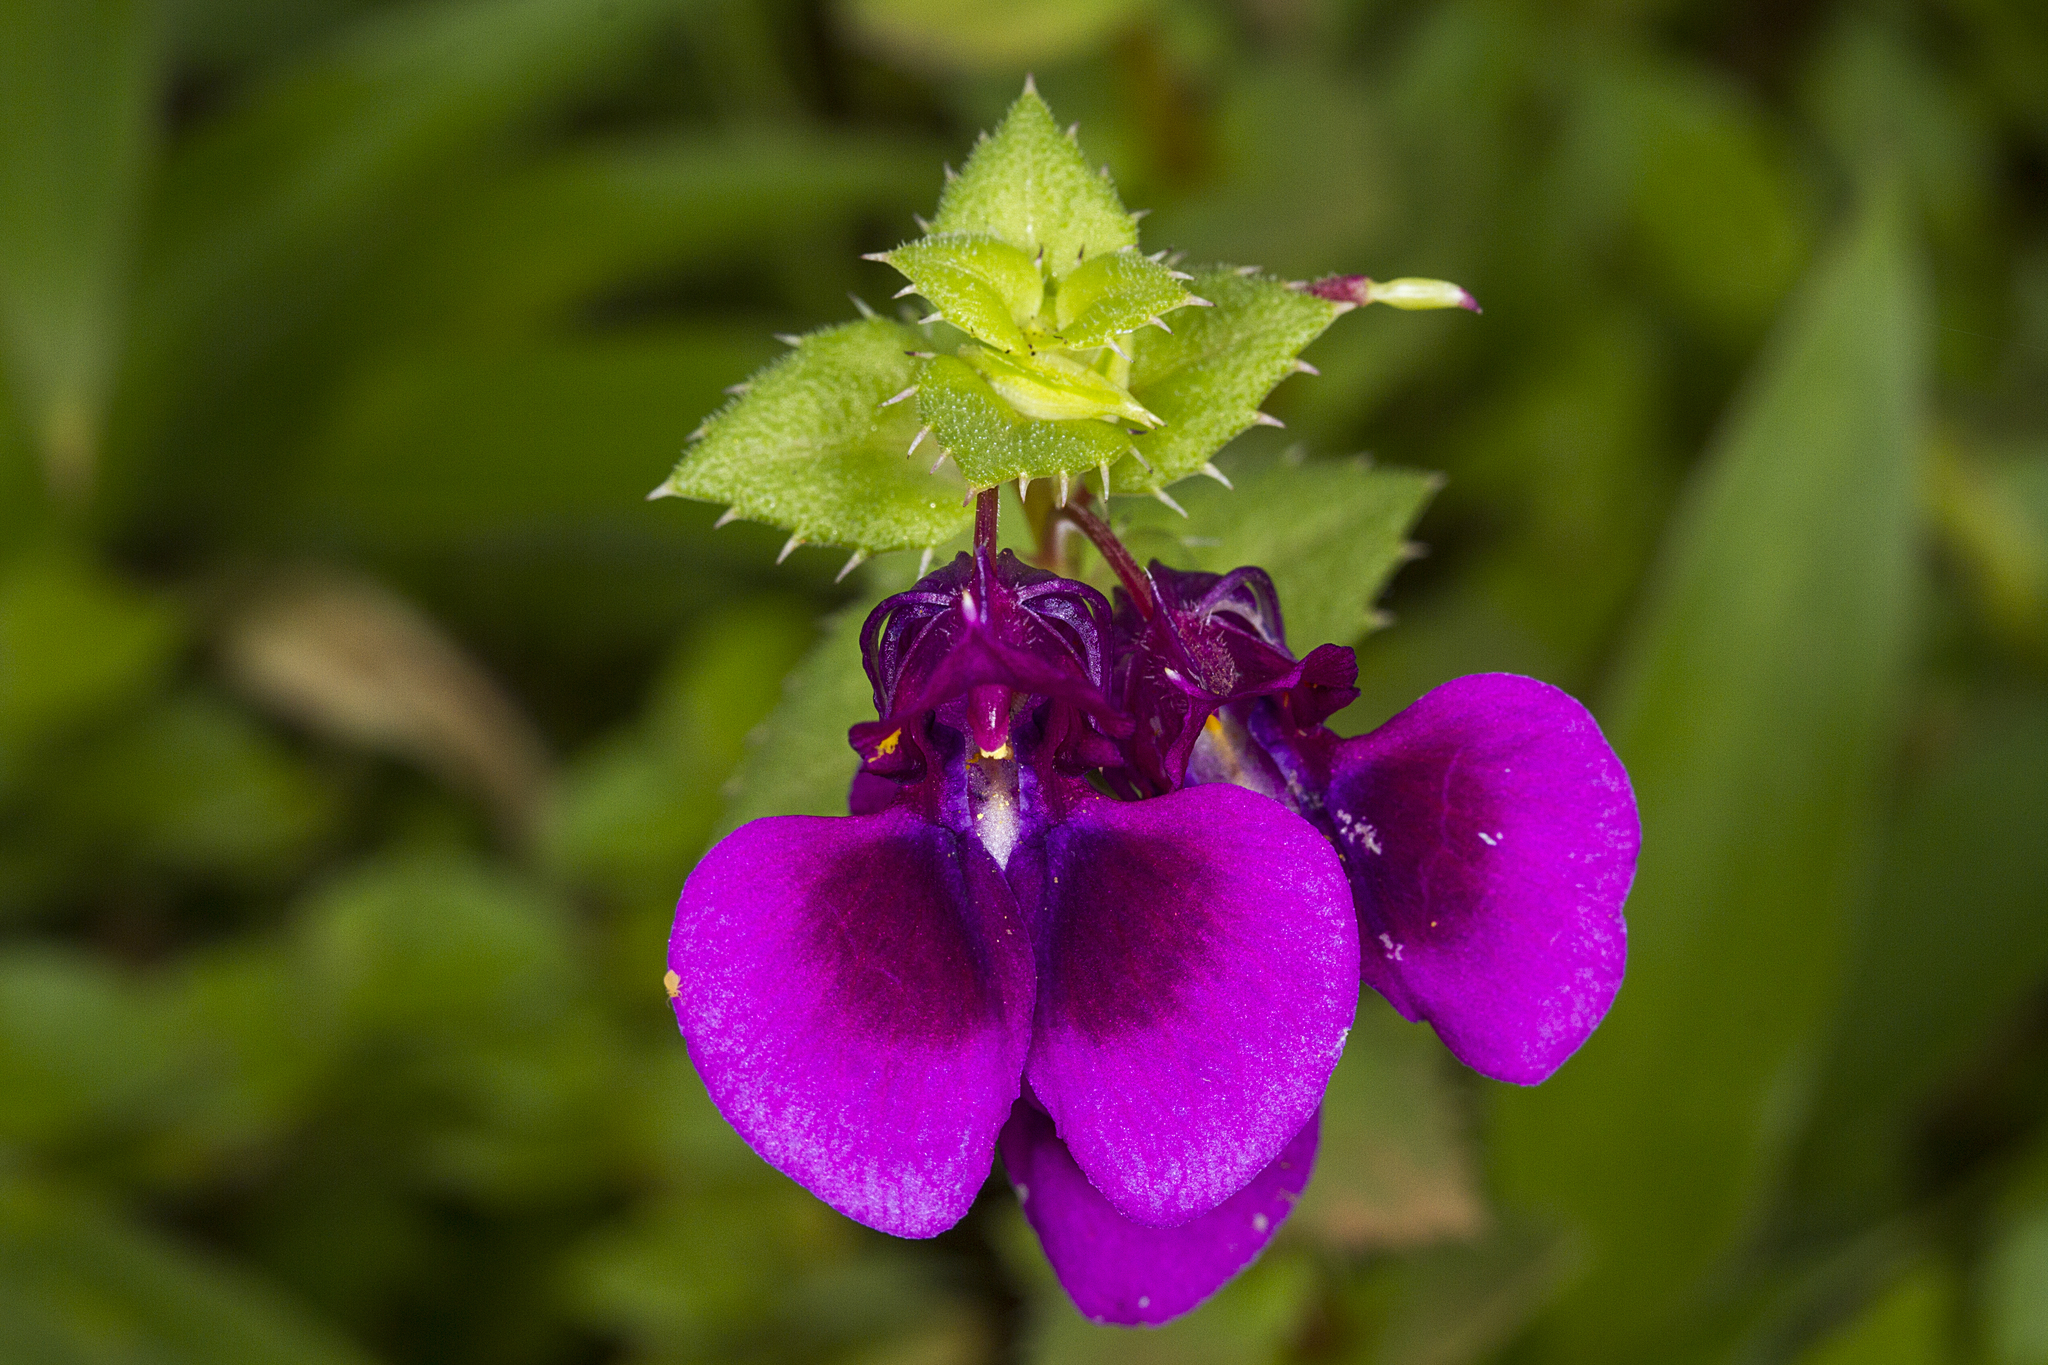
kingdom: Plantae
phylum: Tracheophyta
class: Magnoliopsida
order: Ericales
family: Balsaminaceae
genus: Impatiens
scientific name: Impatiens lawii
